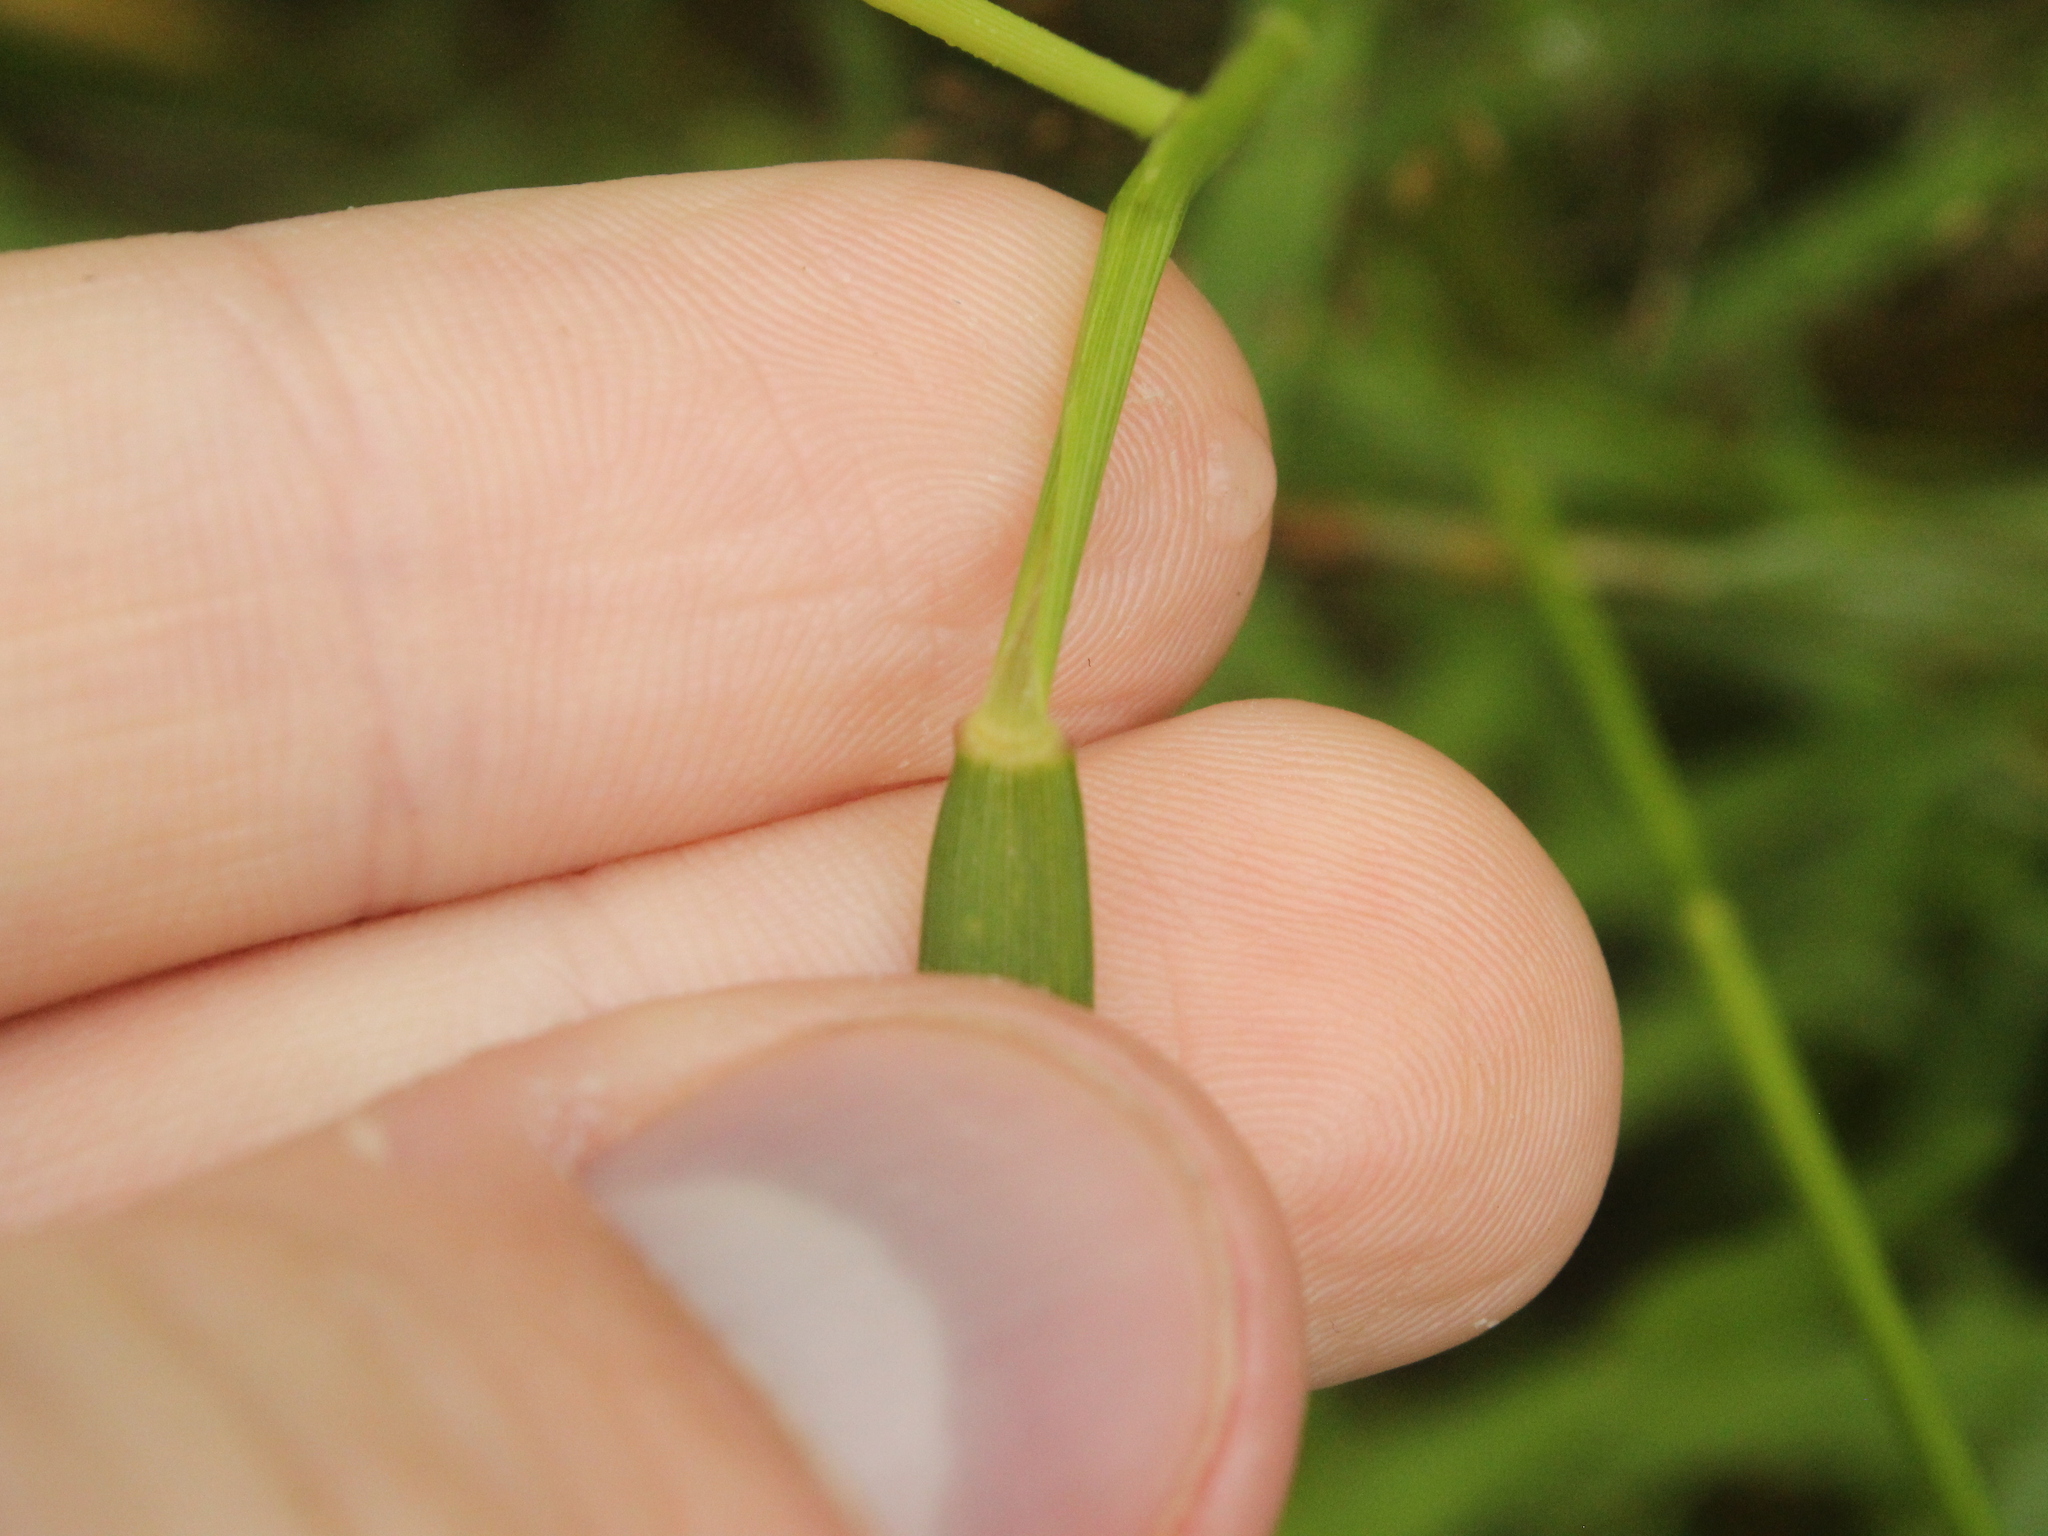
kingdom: Plantae
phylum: Tracheophyta
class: Liliopsida
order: Poales
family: Poaceae
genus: Isachne
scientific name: Isachne globosa
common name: Swamp millet
